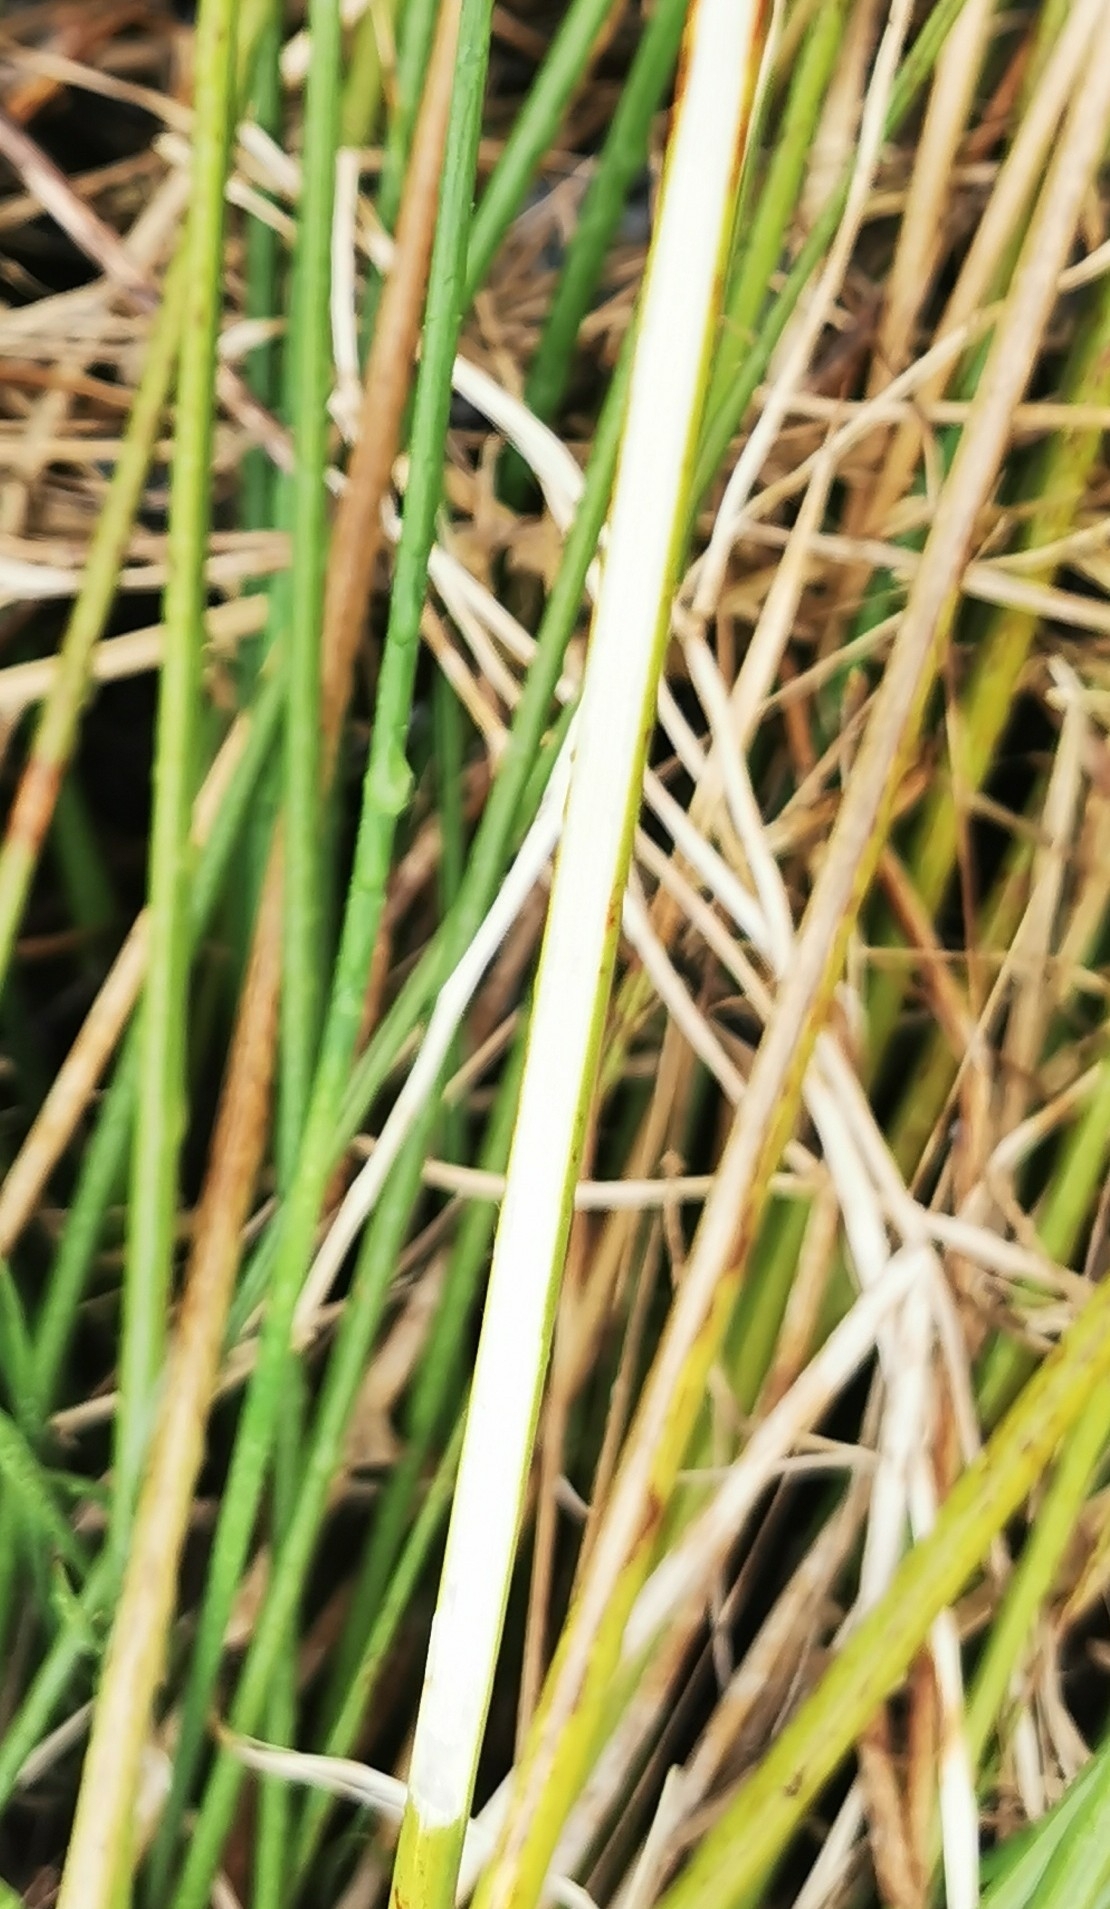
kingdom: Plantae
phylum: Tracheophyta
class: Liliopsida
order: Poales
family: Juncaceae
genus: Juncus
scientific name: Juncus effusus
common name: Soft rush
